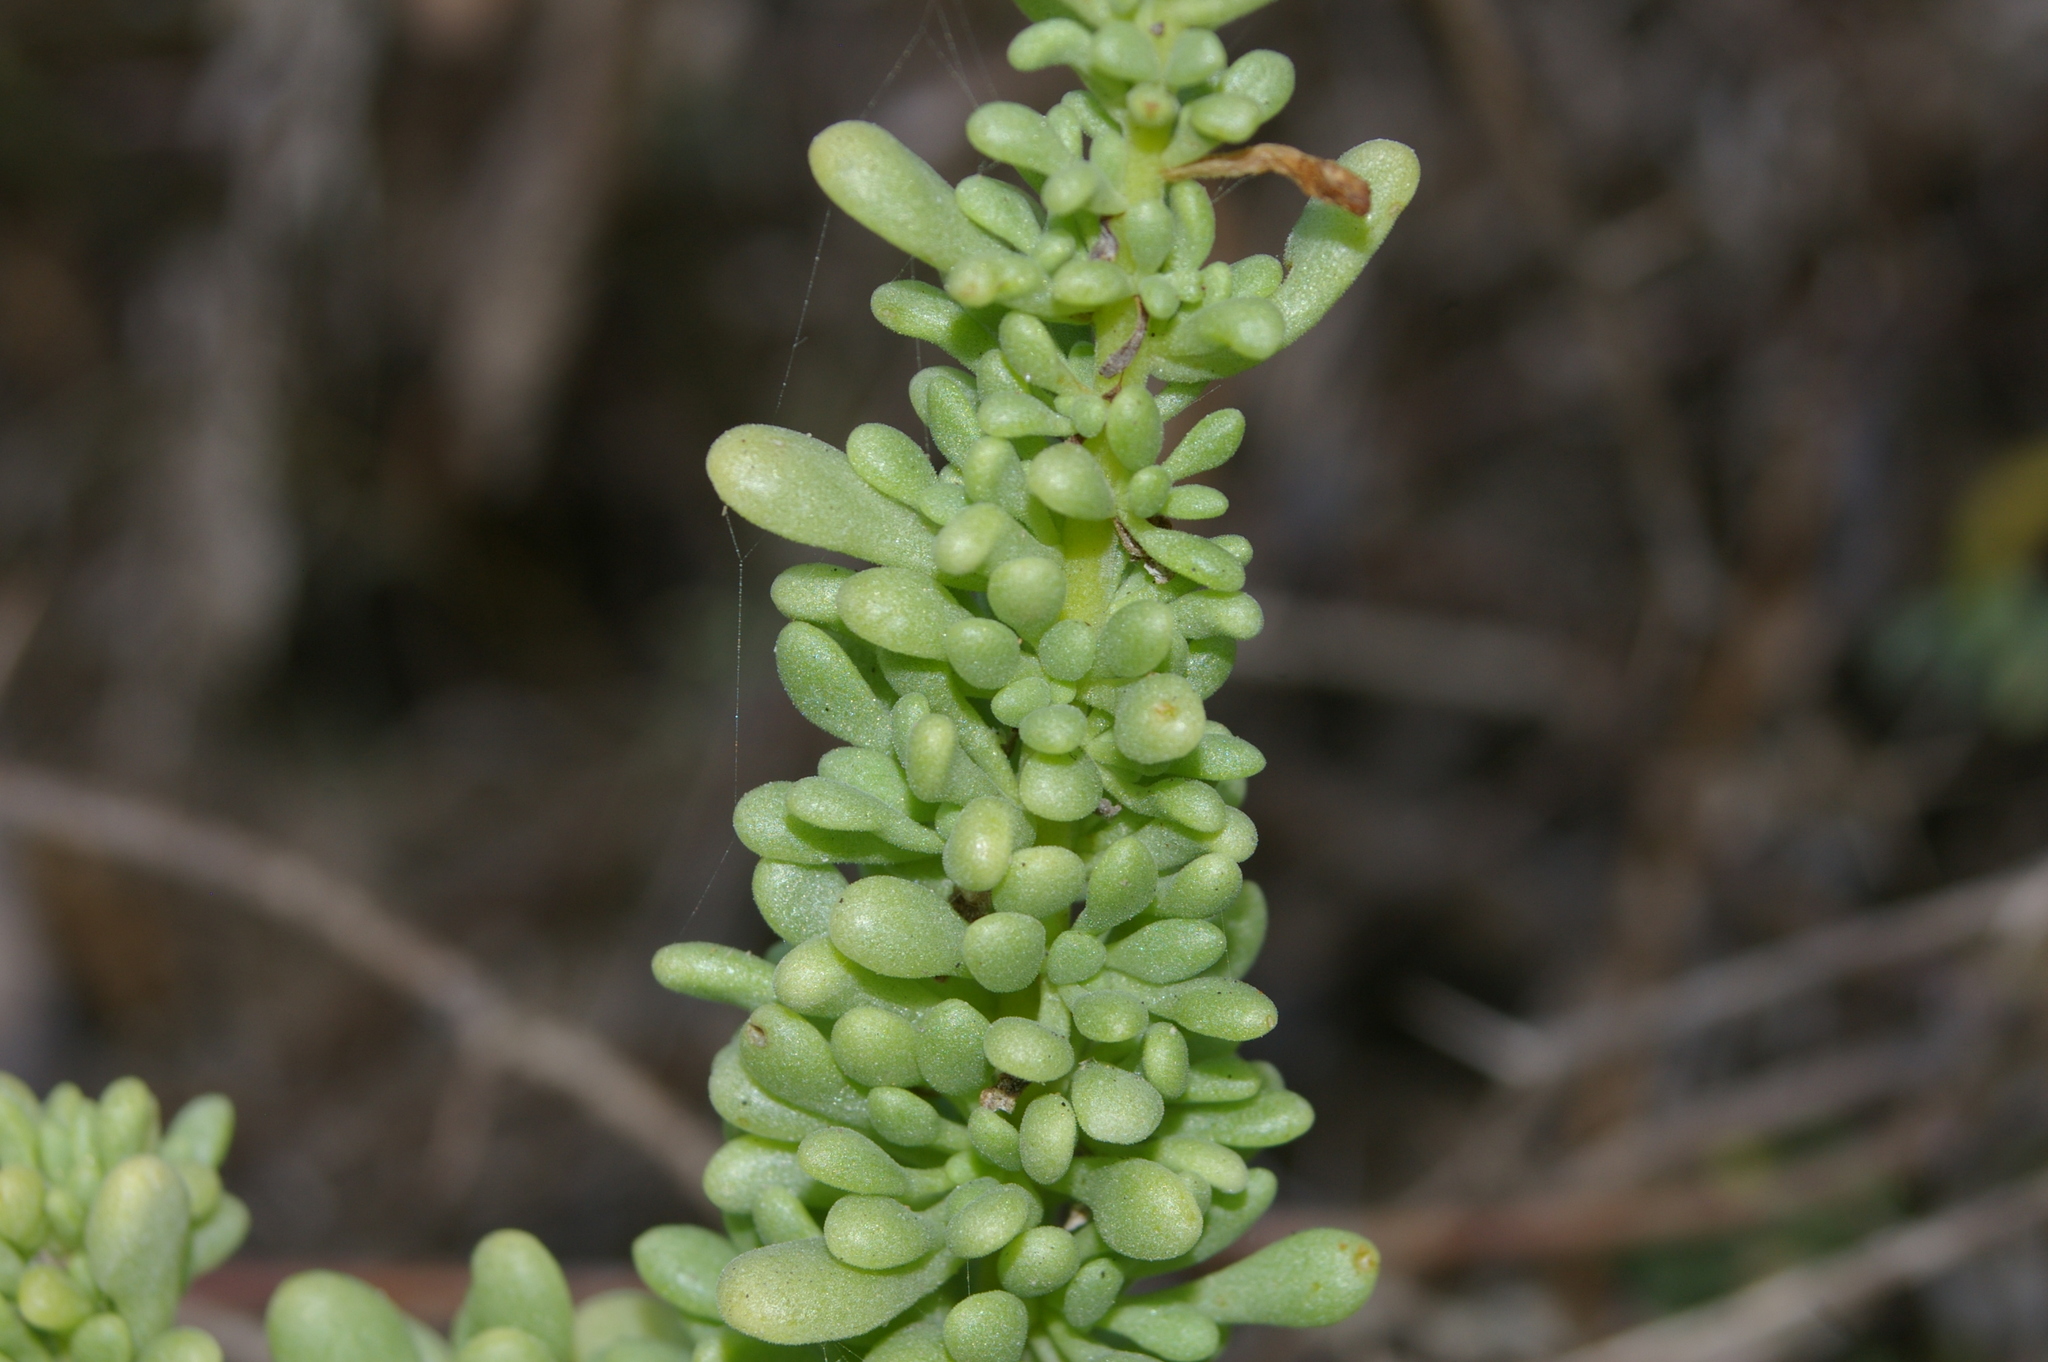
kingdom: Plantae
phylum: Tracheophyta
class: Magnoliopsida
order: Solanales
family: Solanaceae
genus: Nolana
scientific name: Nolana galapagensis
